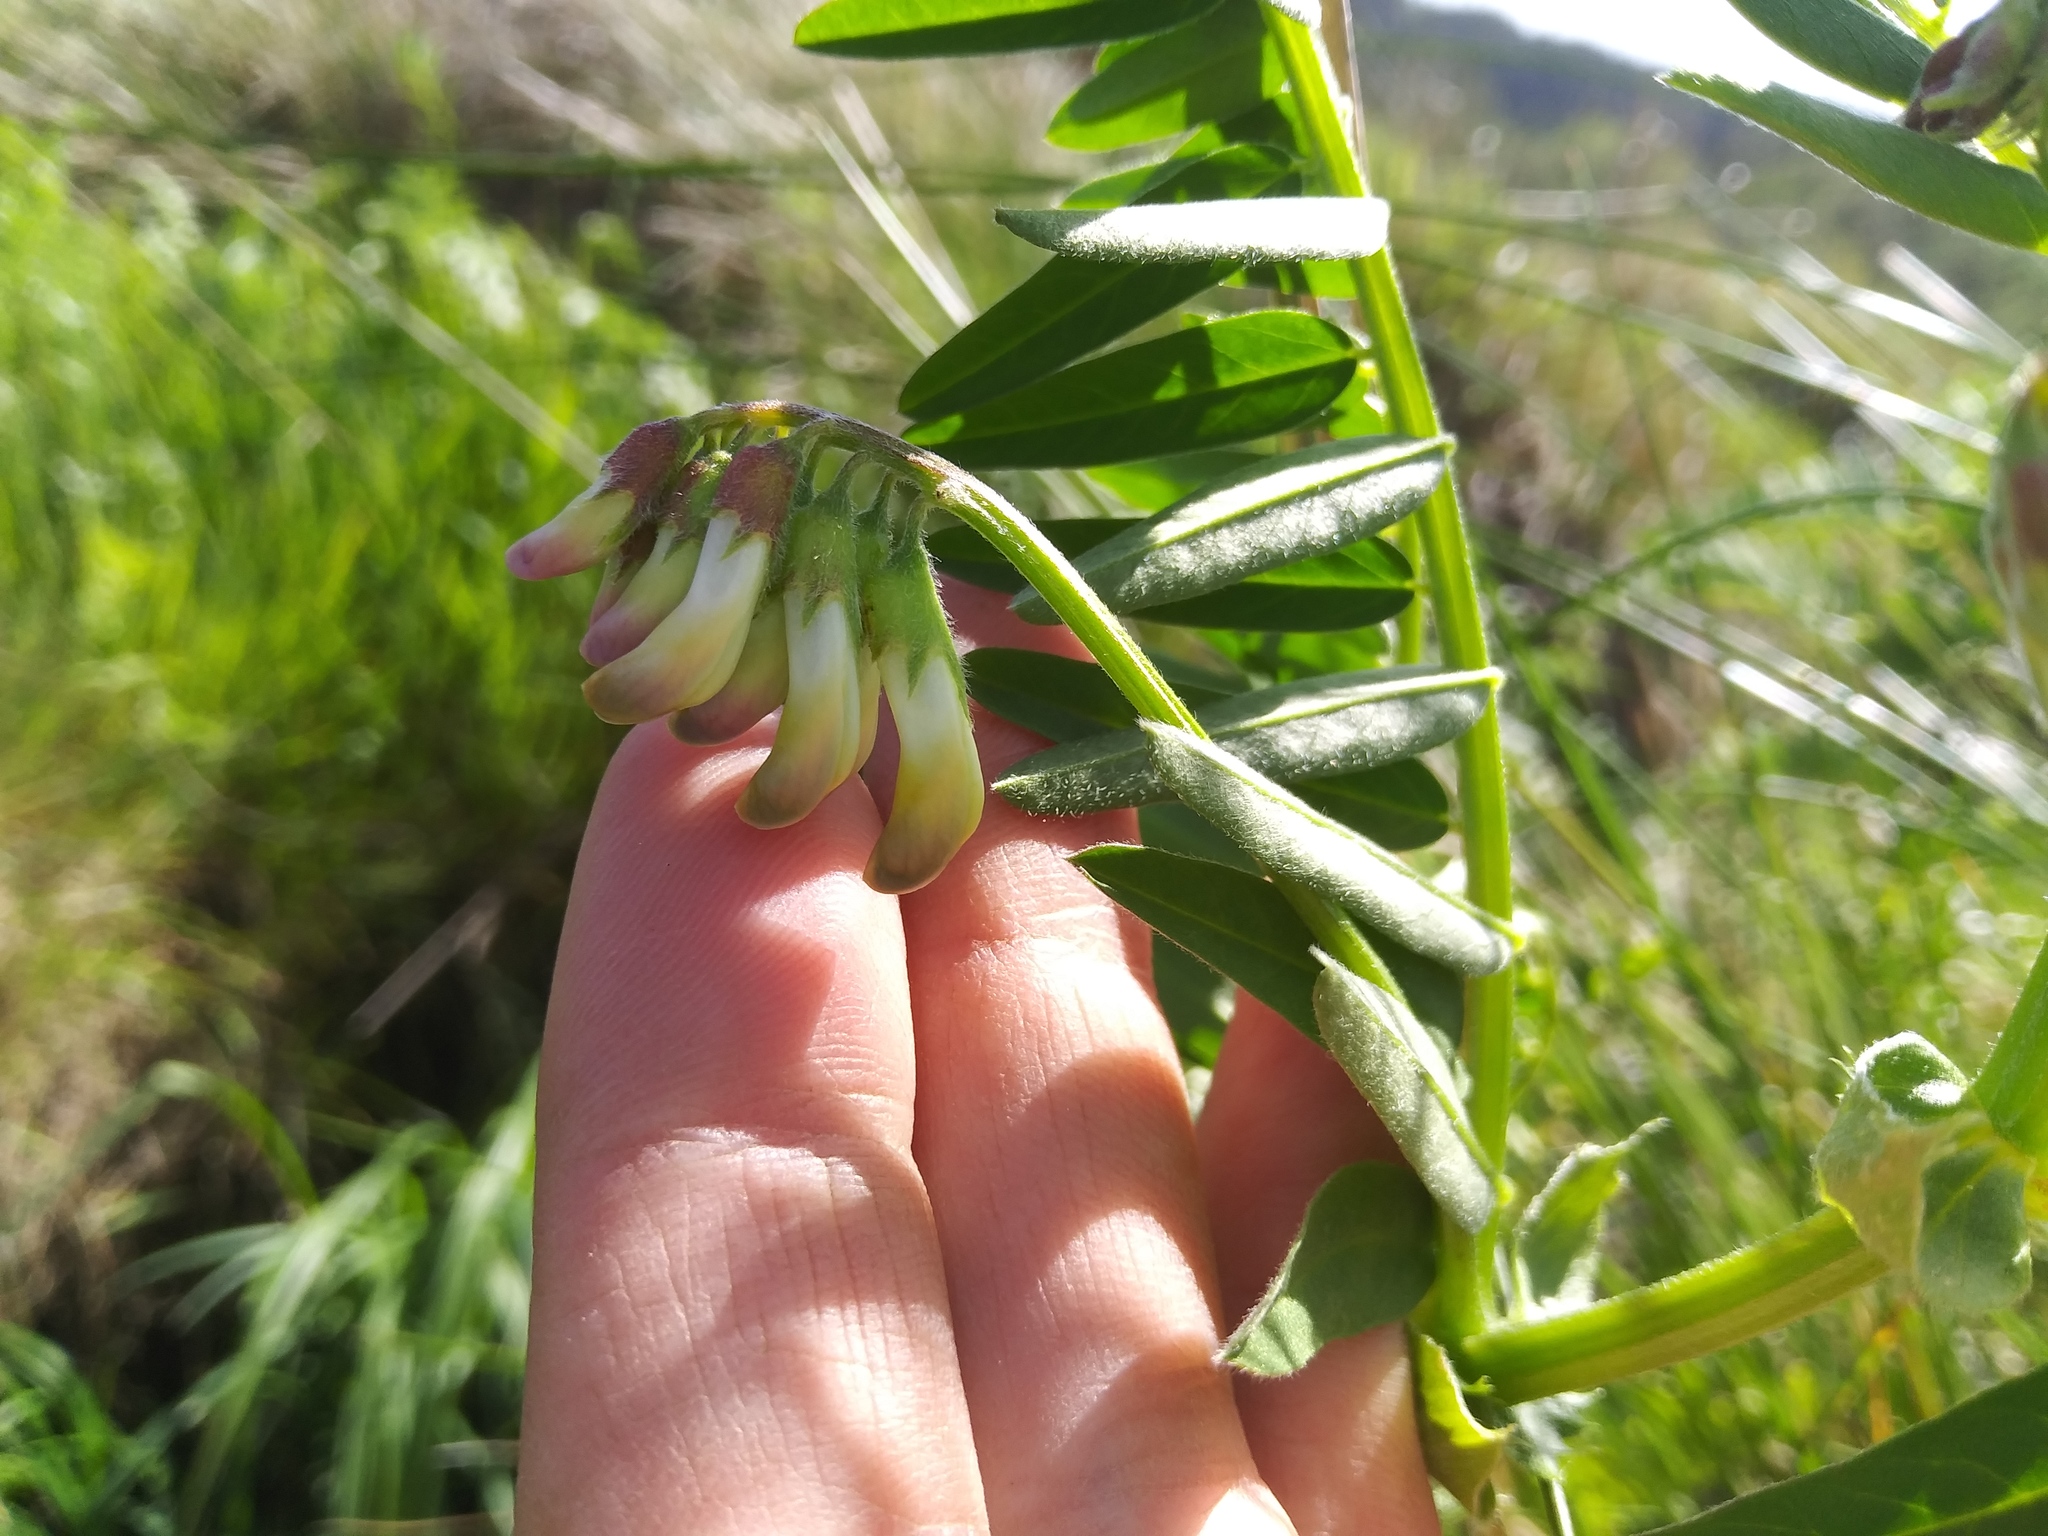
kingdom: Plantae
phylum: Tracheophyta
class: Magnoliopsida
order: Fabales
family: Fabaceae
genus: Vicia
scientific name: Vicia
